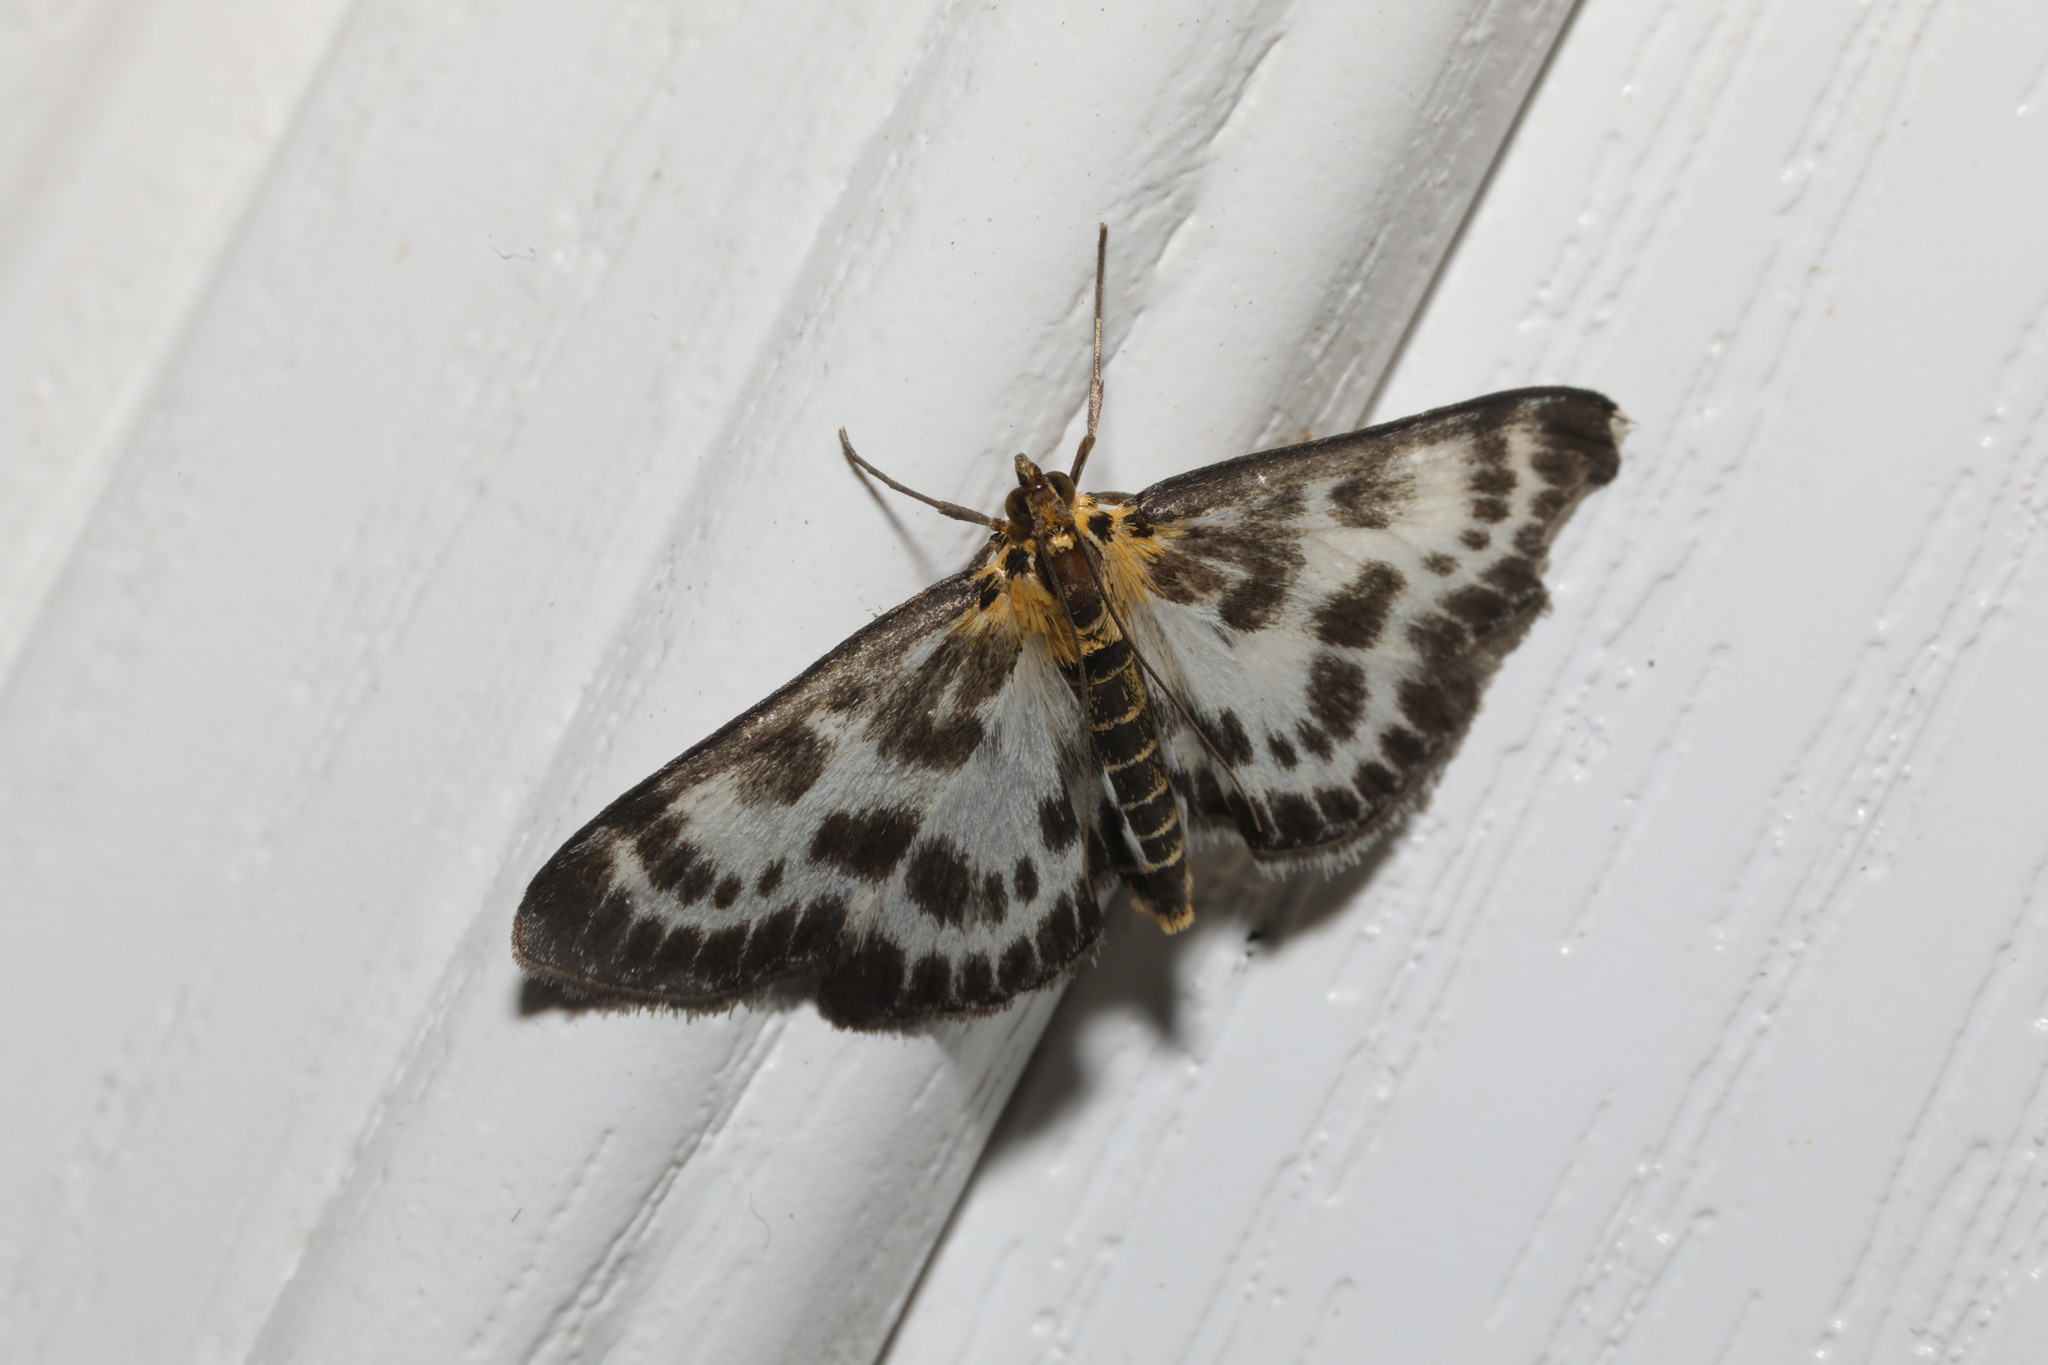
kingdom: Animalia
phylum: Arthropoda
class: Insecta
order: Lepidoptera
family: Crambidae
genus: Anania
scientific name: Anania hortulata
